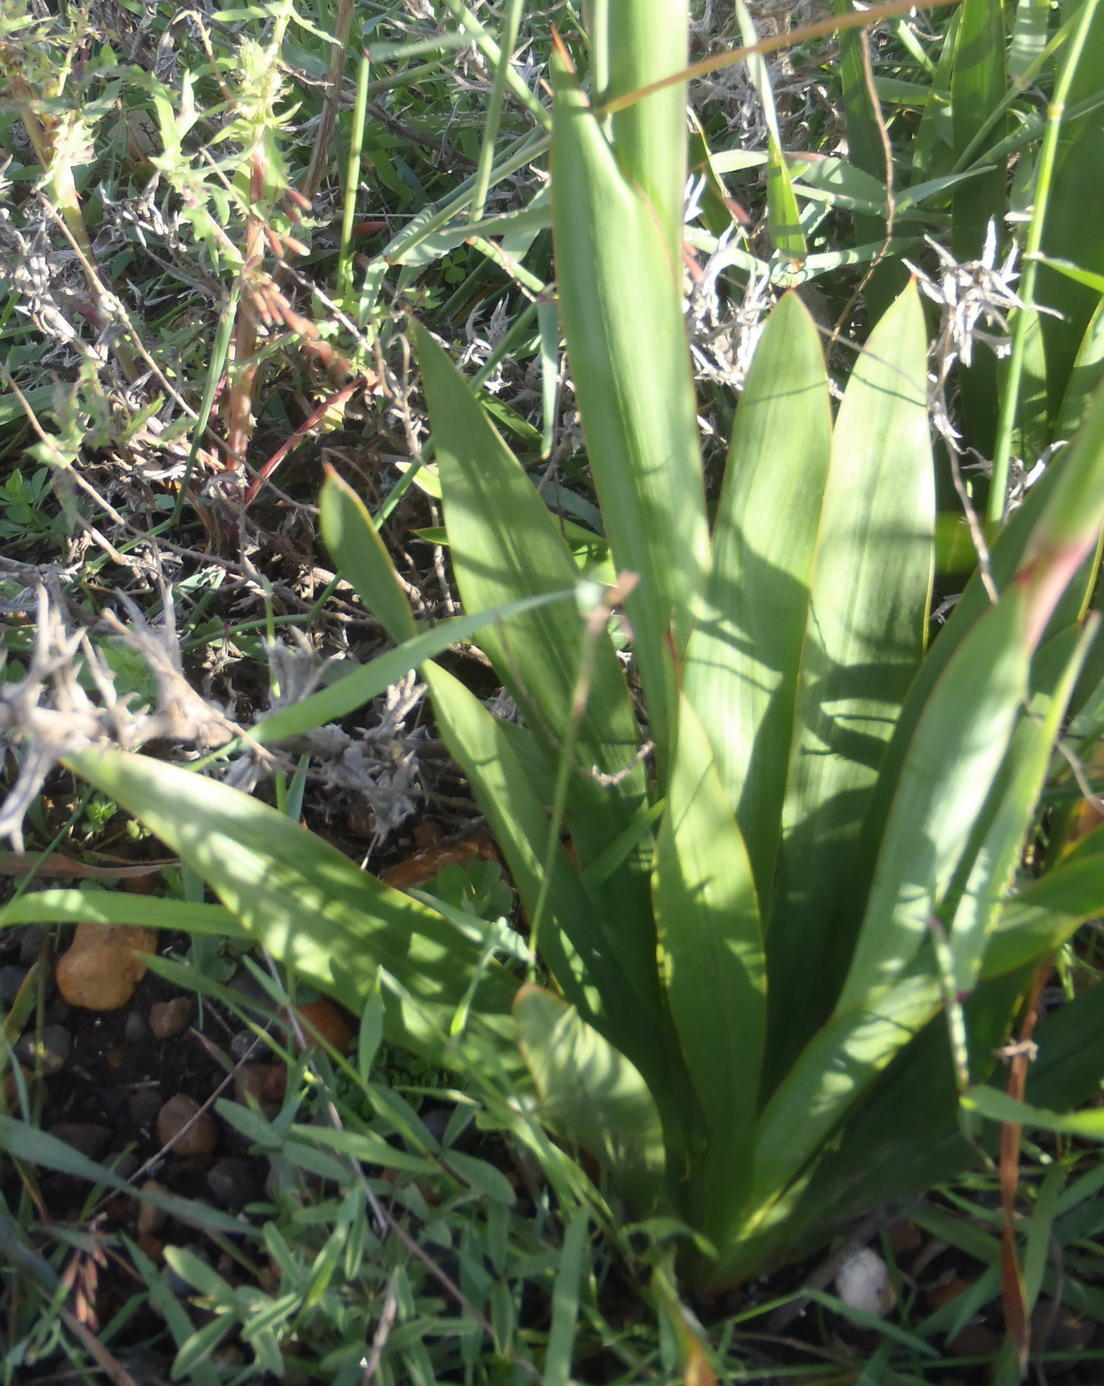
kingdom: Plantae
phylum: Tracheophyta
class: Liliopsida
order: Asparagales
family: Iridaceae
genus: Watsonia
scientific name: Watsonia laccata
